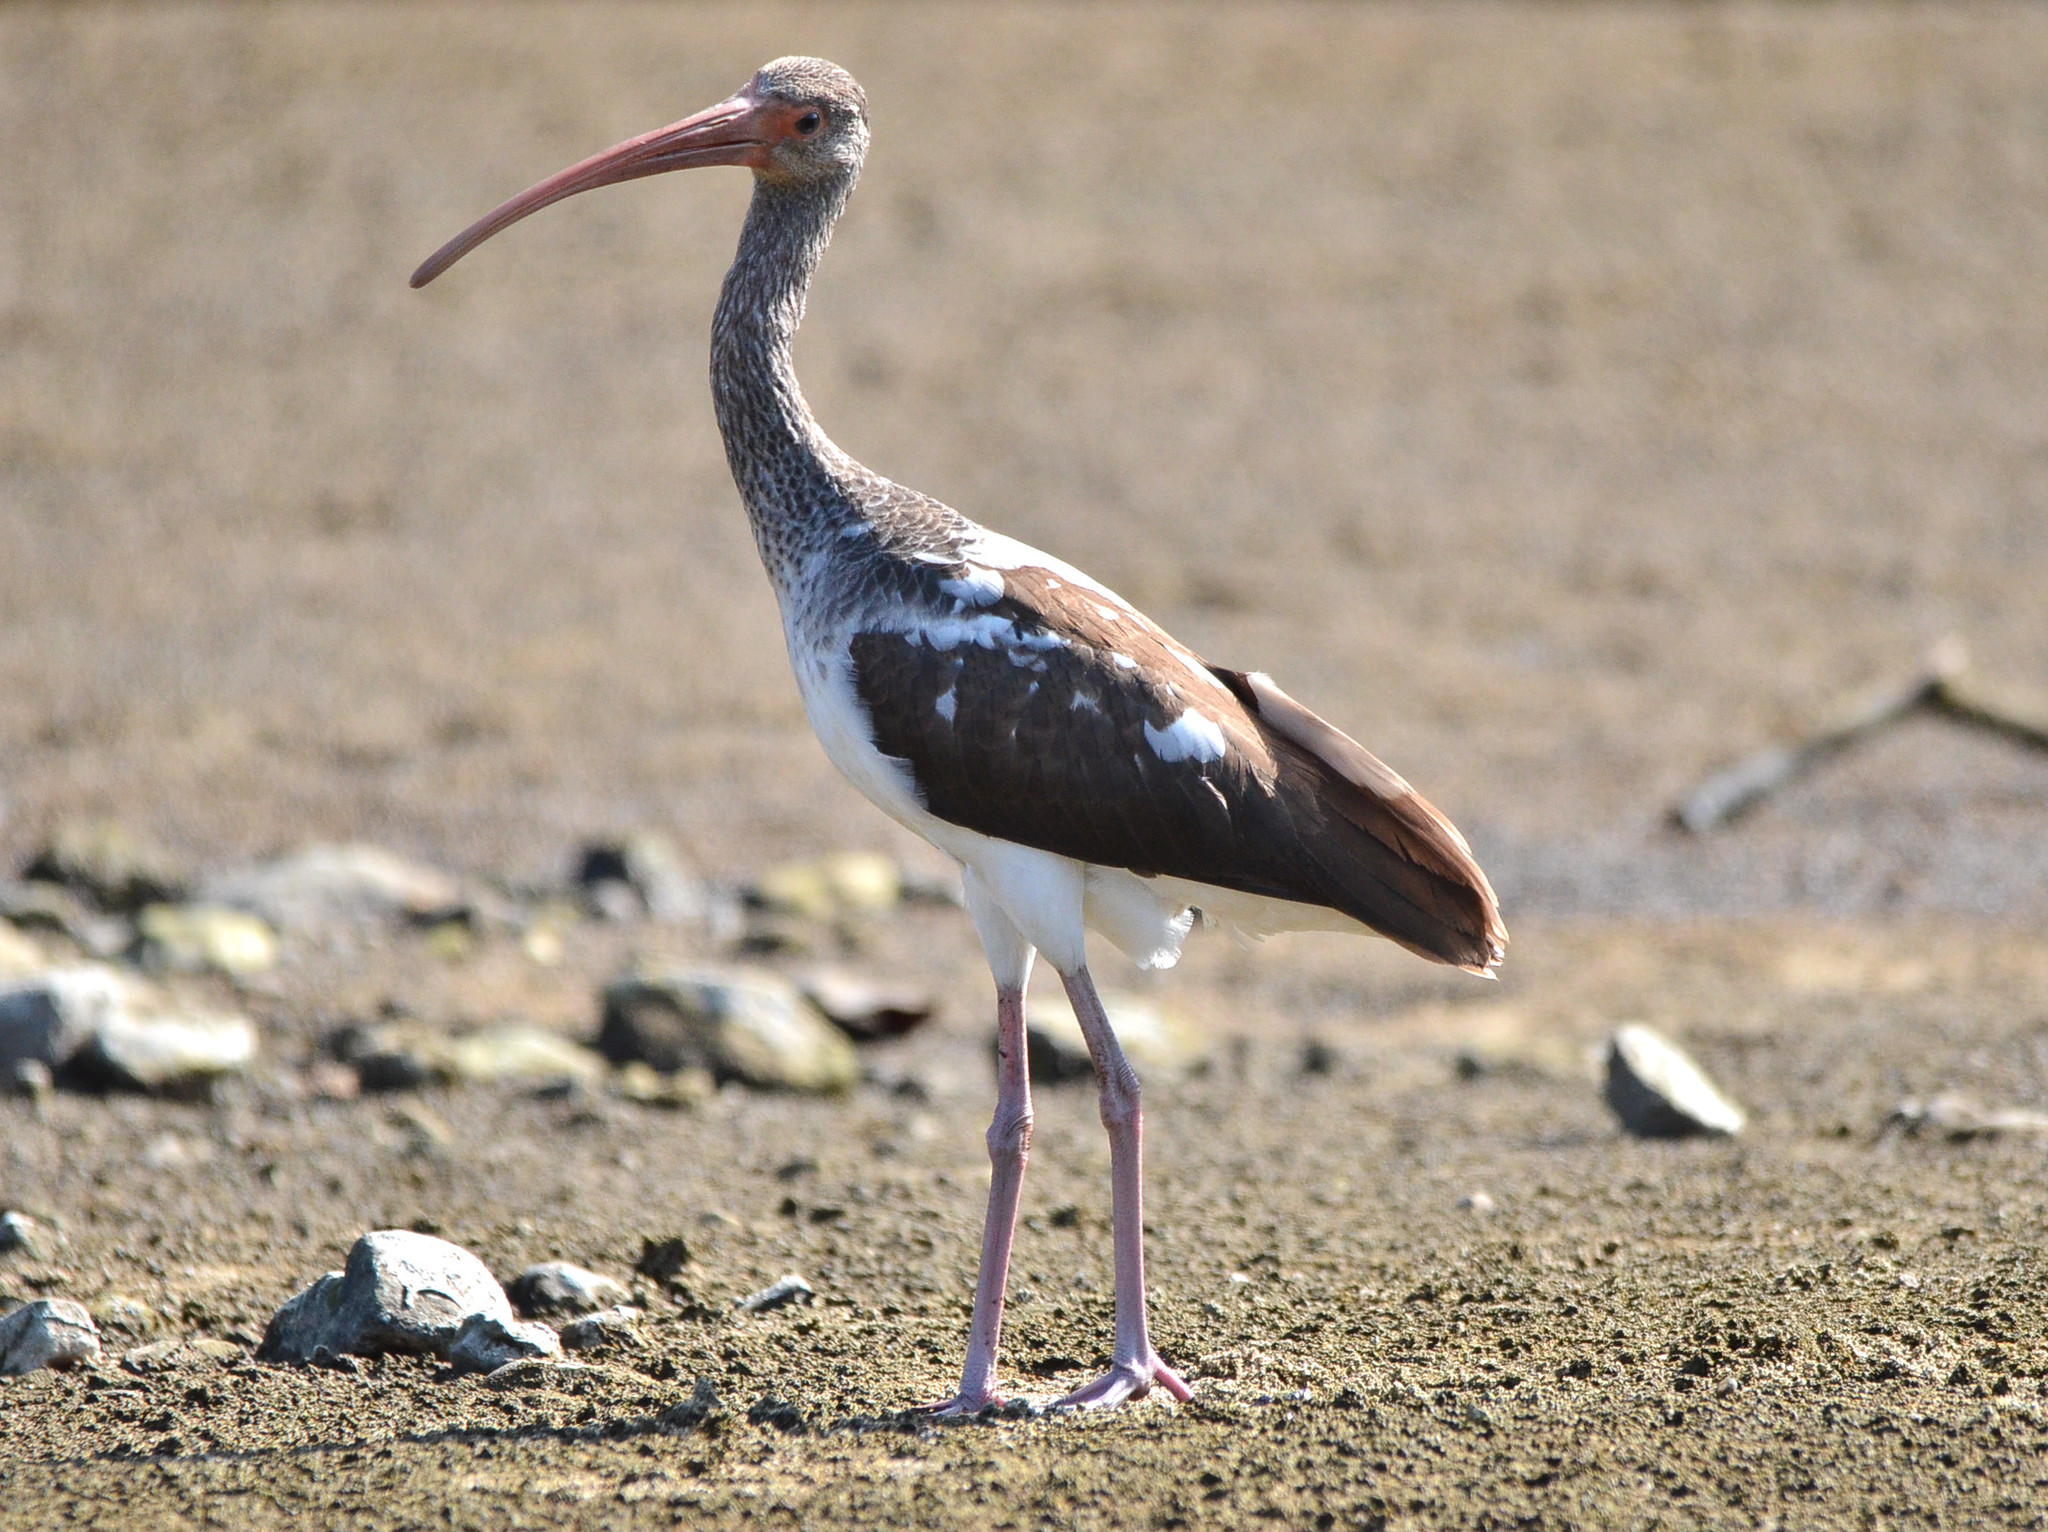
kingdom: Animalia
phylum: Chordata
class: Aves
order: Pelecaniformes
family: Threskiornithidae
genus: Eudocimus
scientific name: Eudocimus albus
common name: White ibis
